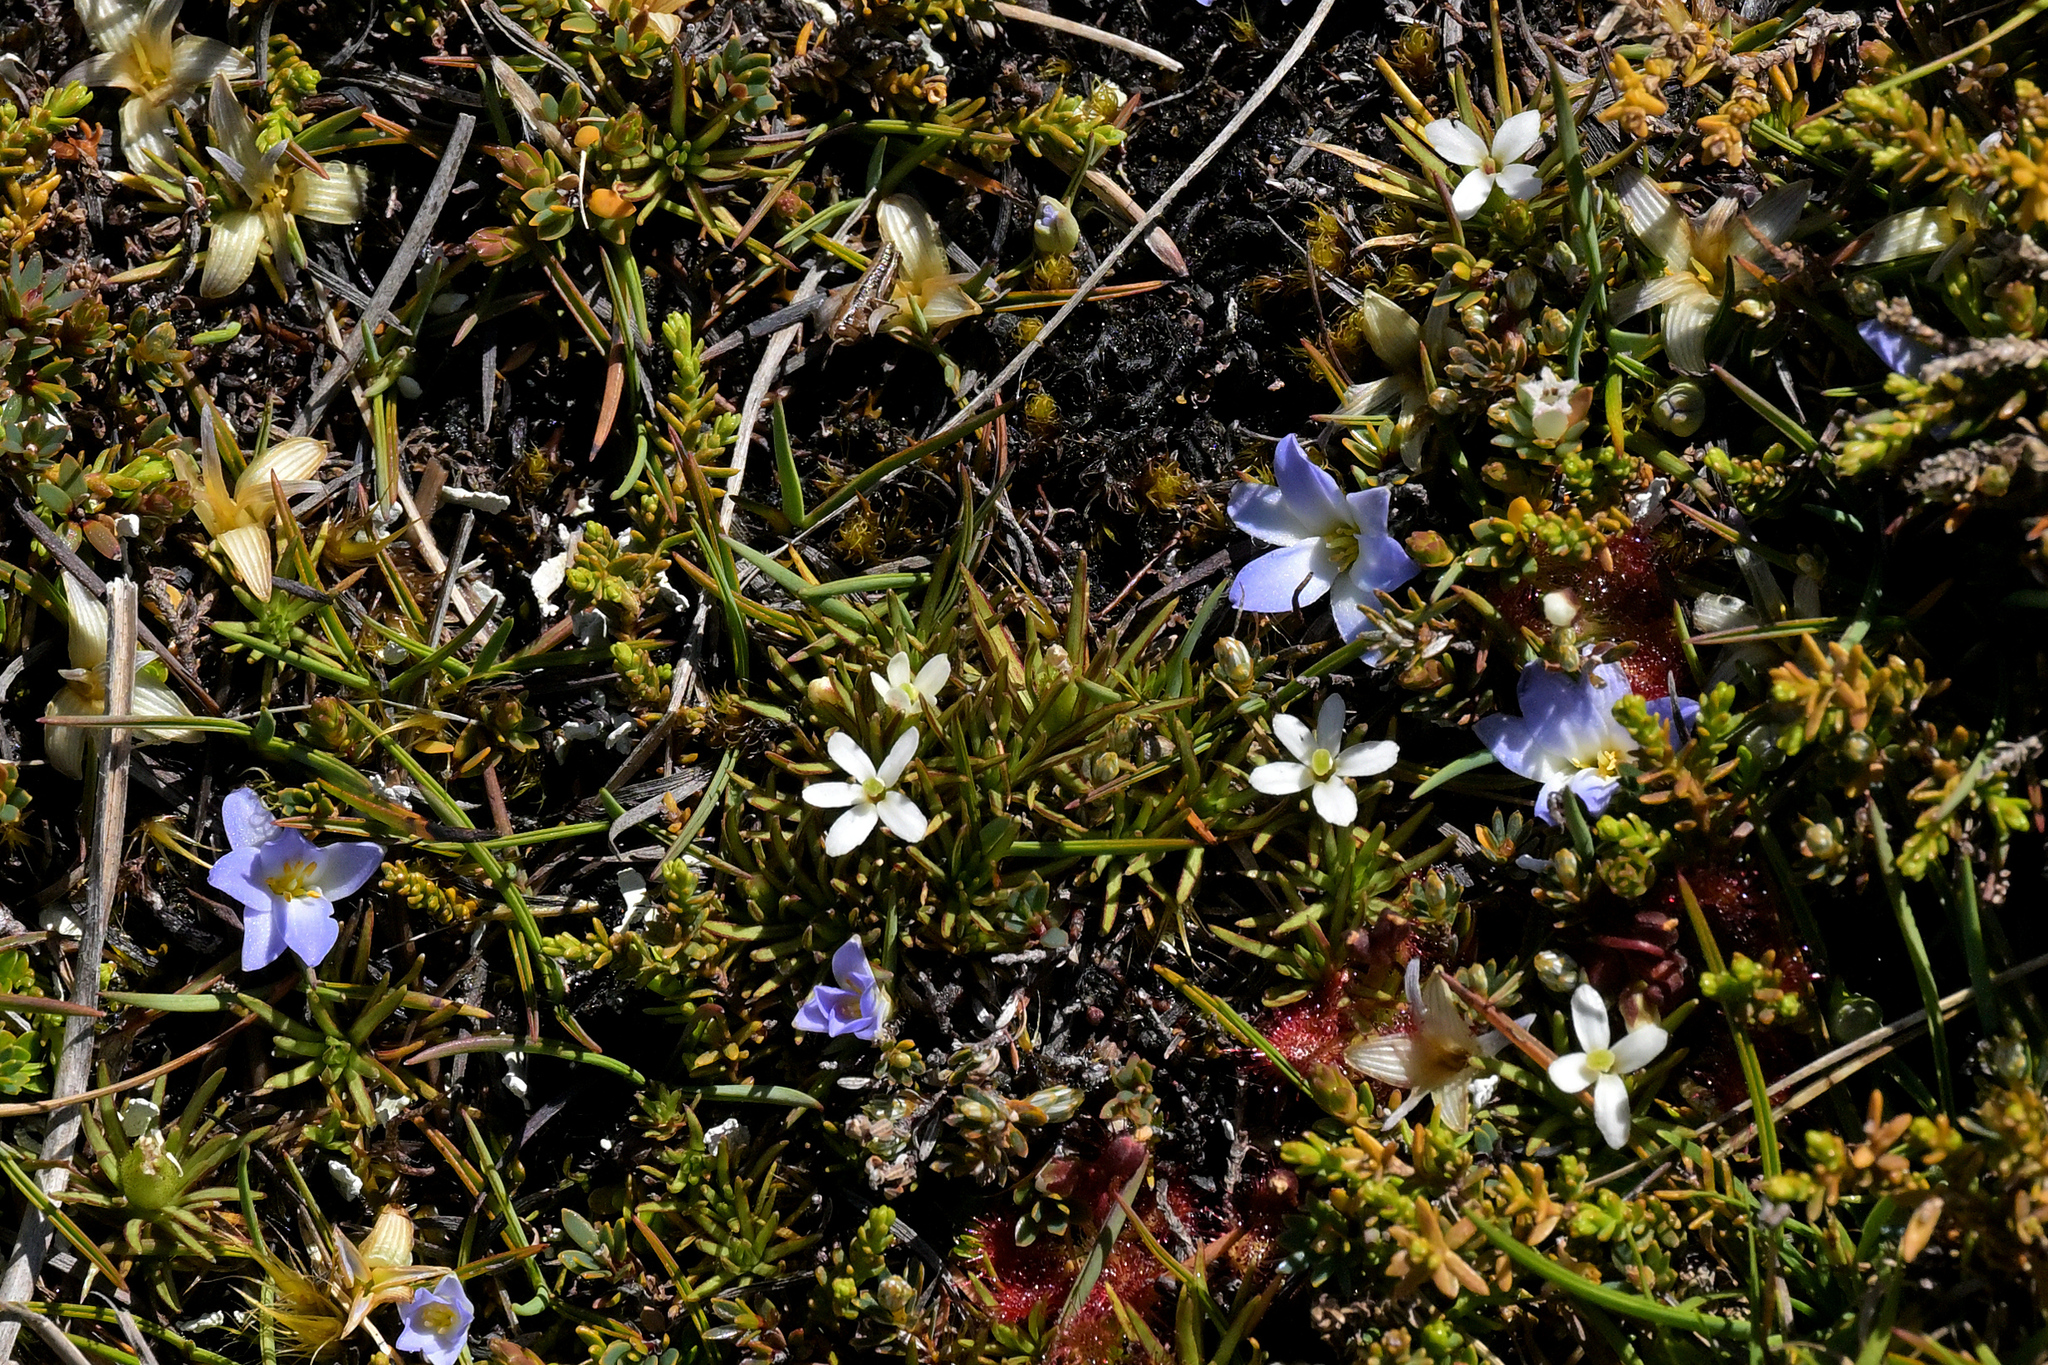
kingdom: Plantae
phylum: Tracheophyta
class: Magnoliopsida
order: Asterales
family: Stylidiaceae
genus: Oreostylidium
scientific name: Oreostylidium subulatum
